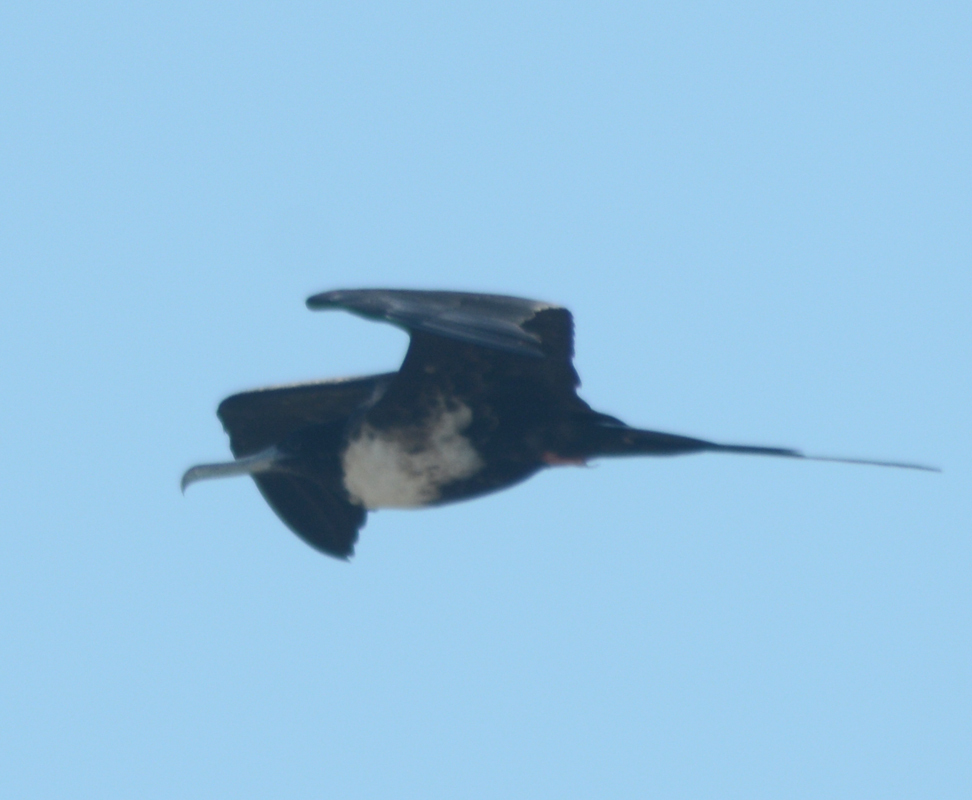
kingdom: Animalia
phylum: Chordata
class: Aves
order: Suliformes
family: Fregatidae
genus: Fregata
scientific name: Fregata magnificens
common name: Magnificent frigatebird
